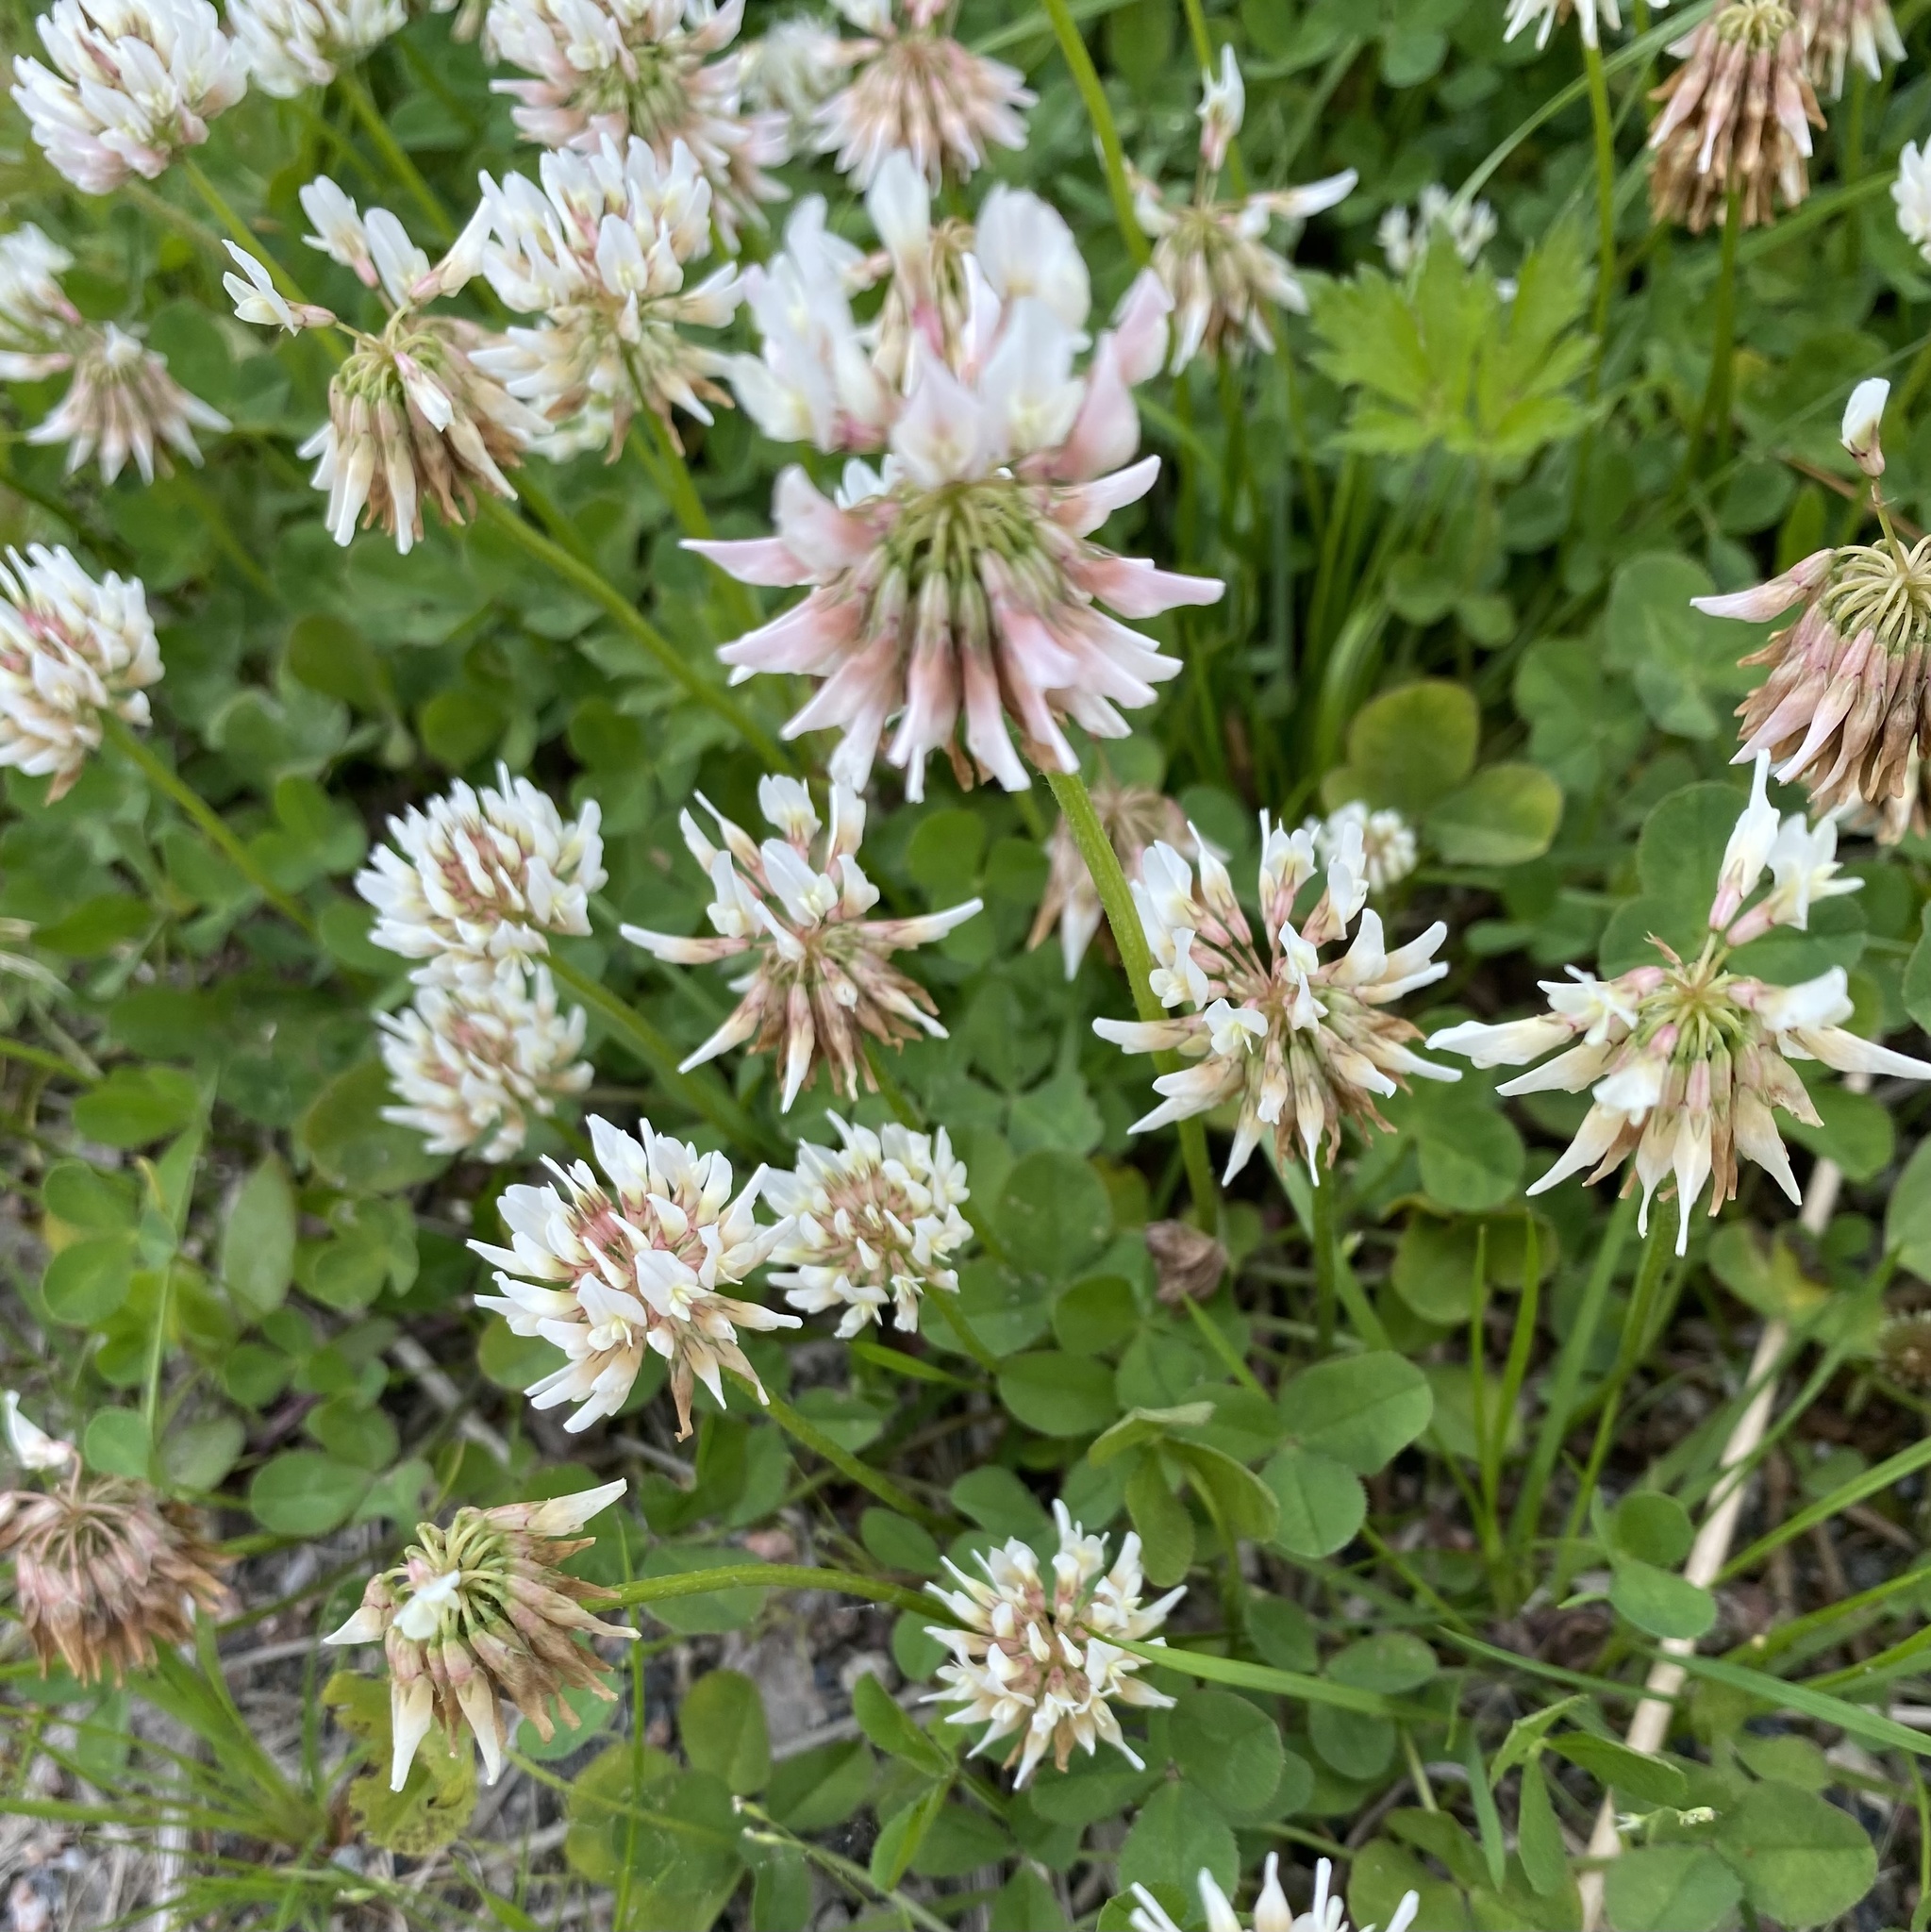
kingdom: Plantae
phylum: Tracheophyta
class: Magnoliopsida
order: Fabales
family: Fabaceae
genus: Trifolium
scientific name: Trifolium repens
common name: White clover
